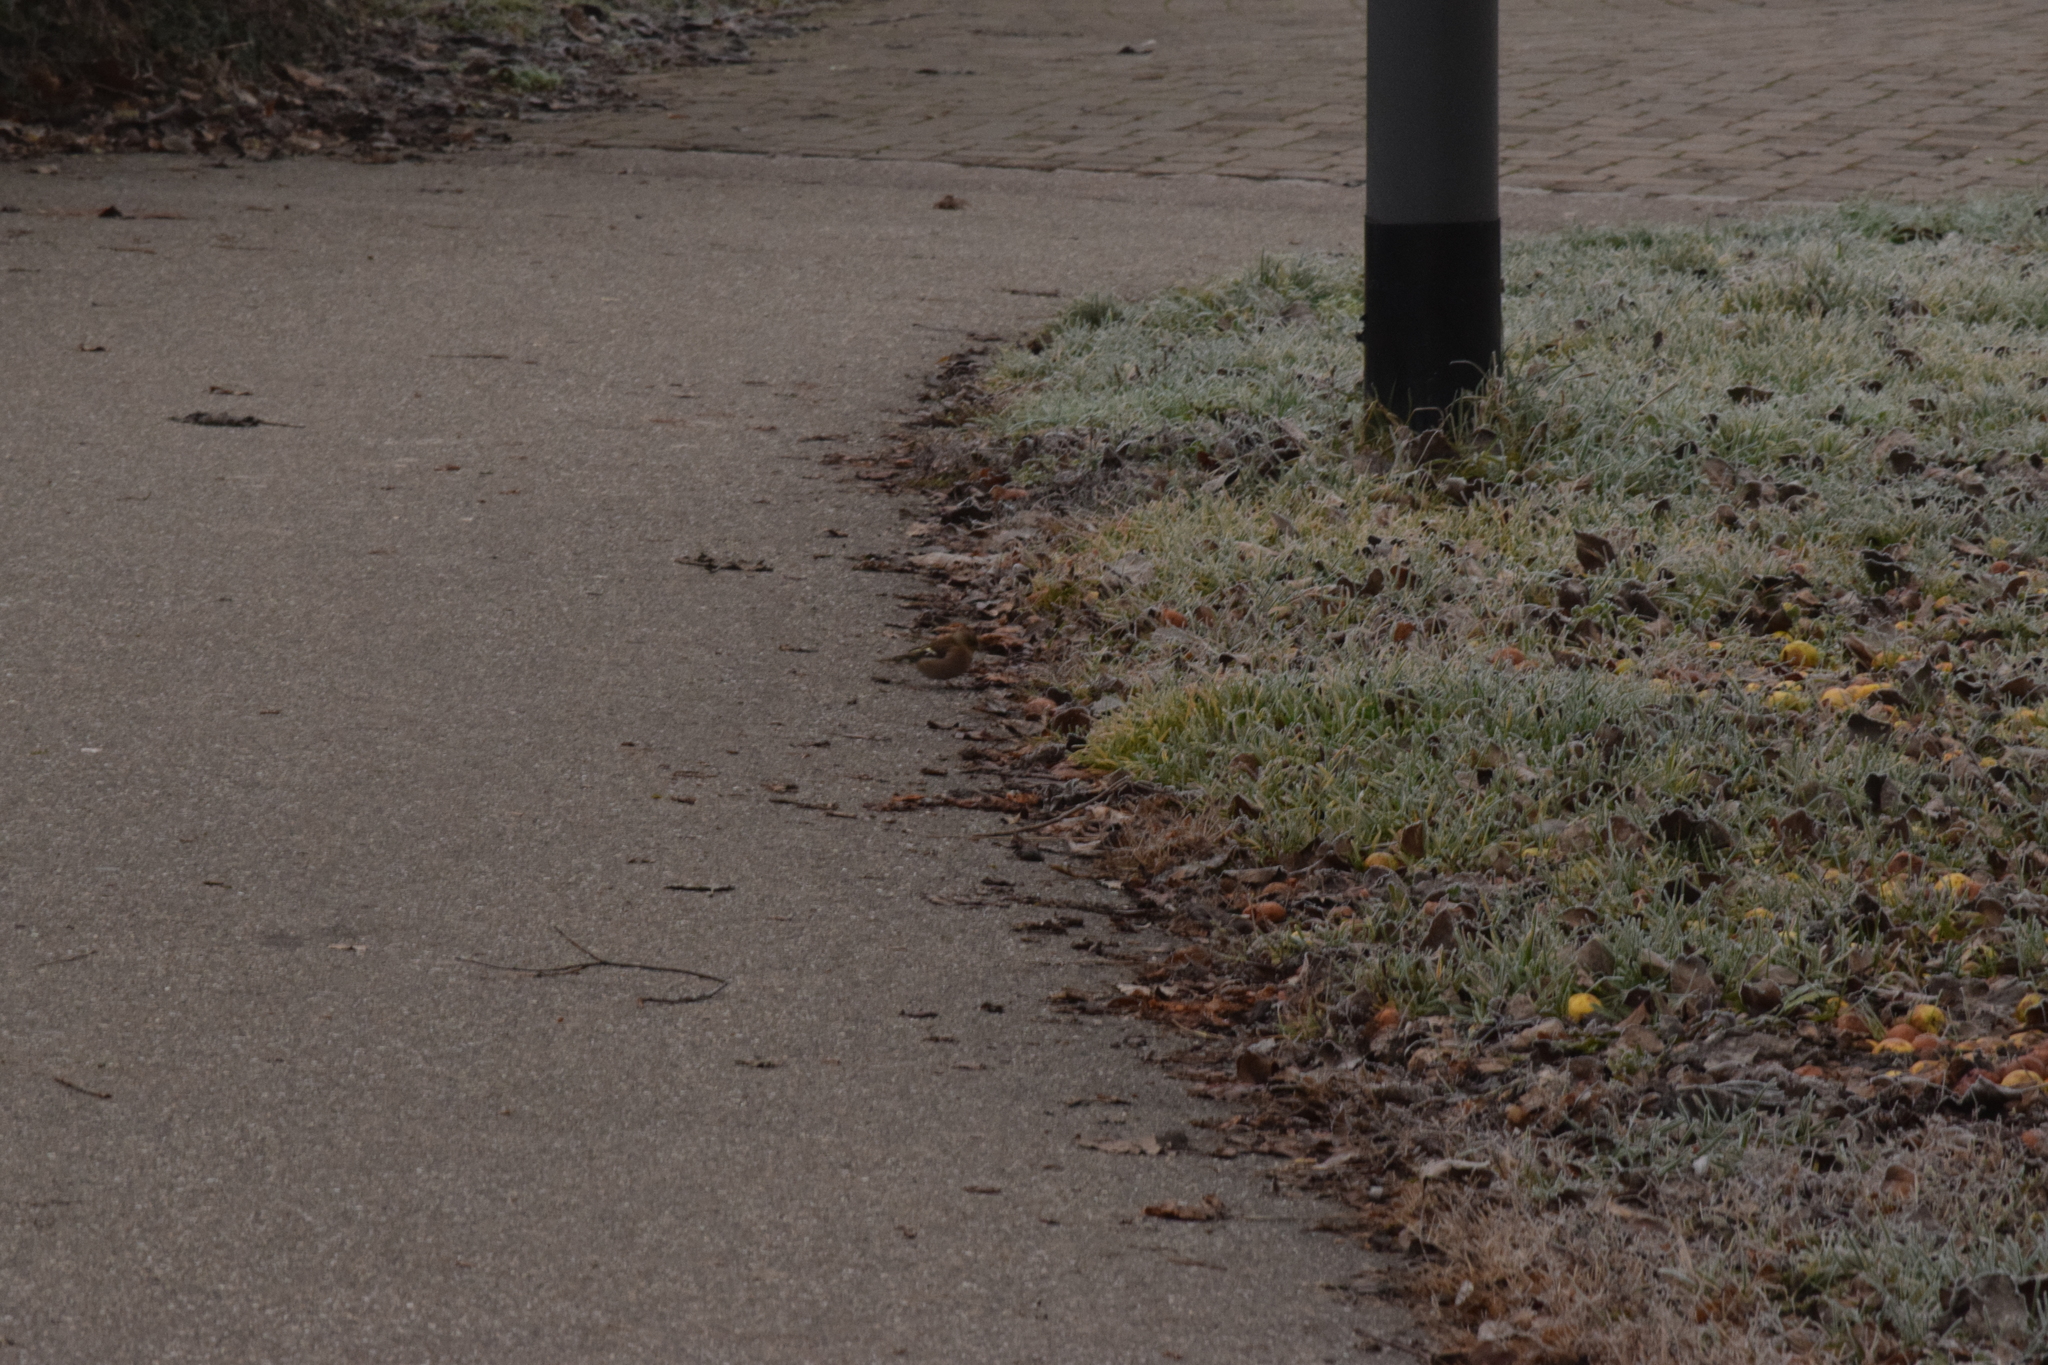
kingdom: Animalia
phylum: Chordata
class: Aves
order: Passeriformes
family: Fringillidae
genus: Fringilla
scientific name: Fringilla coelebs
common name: Common chaffinch
